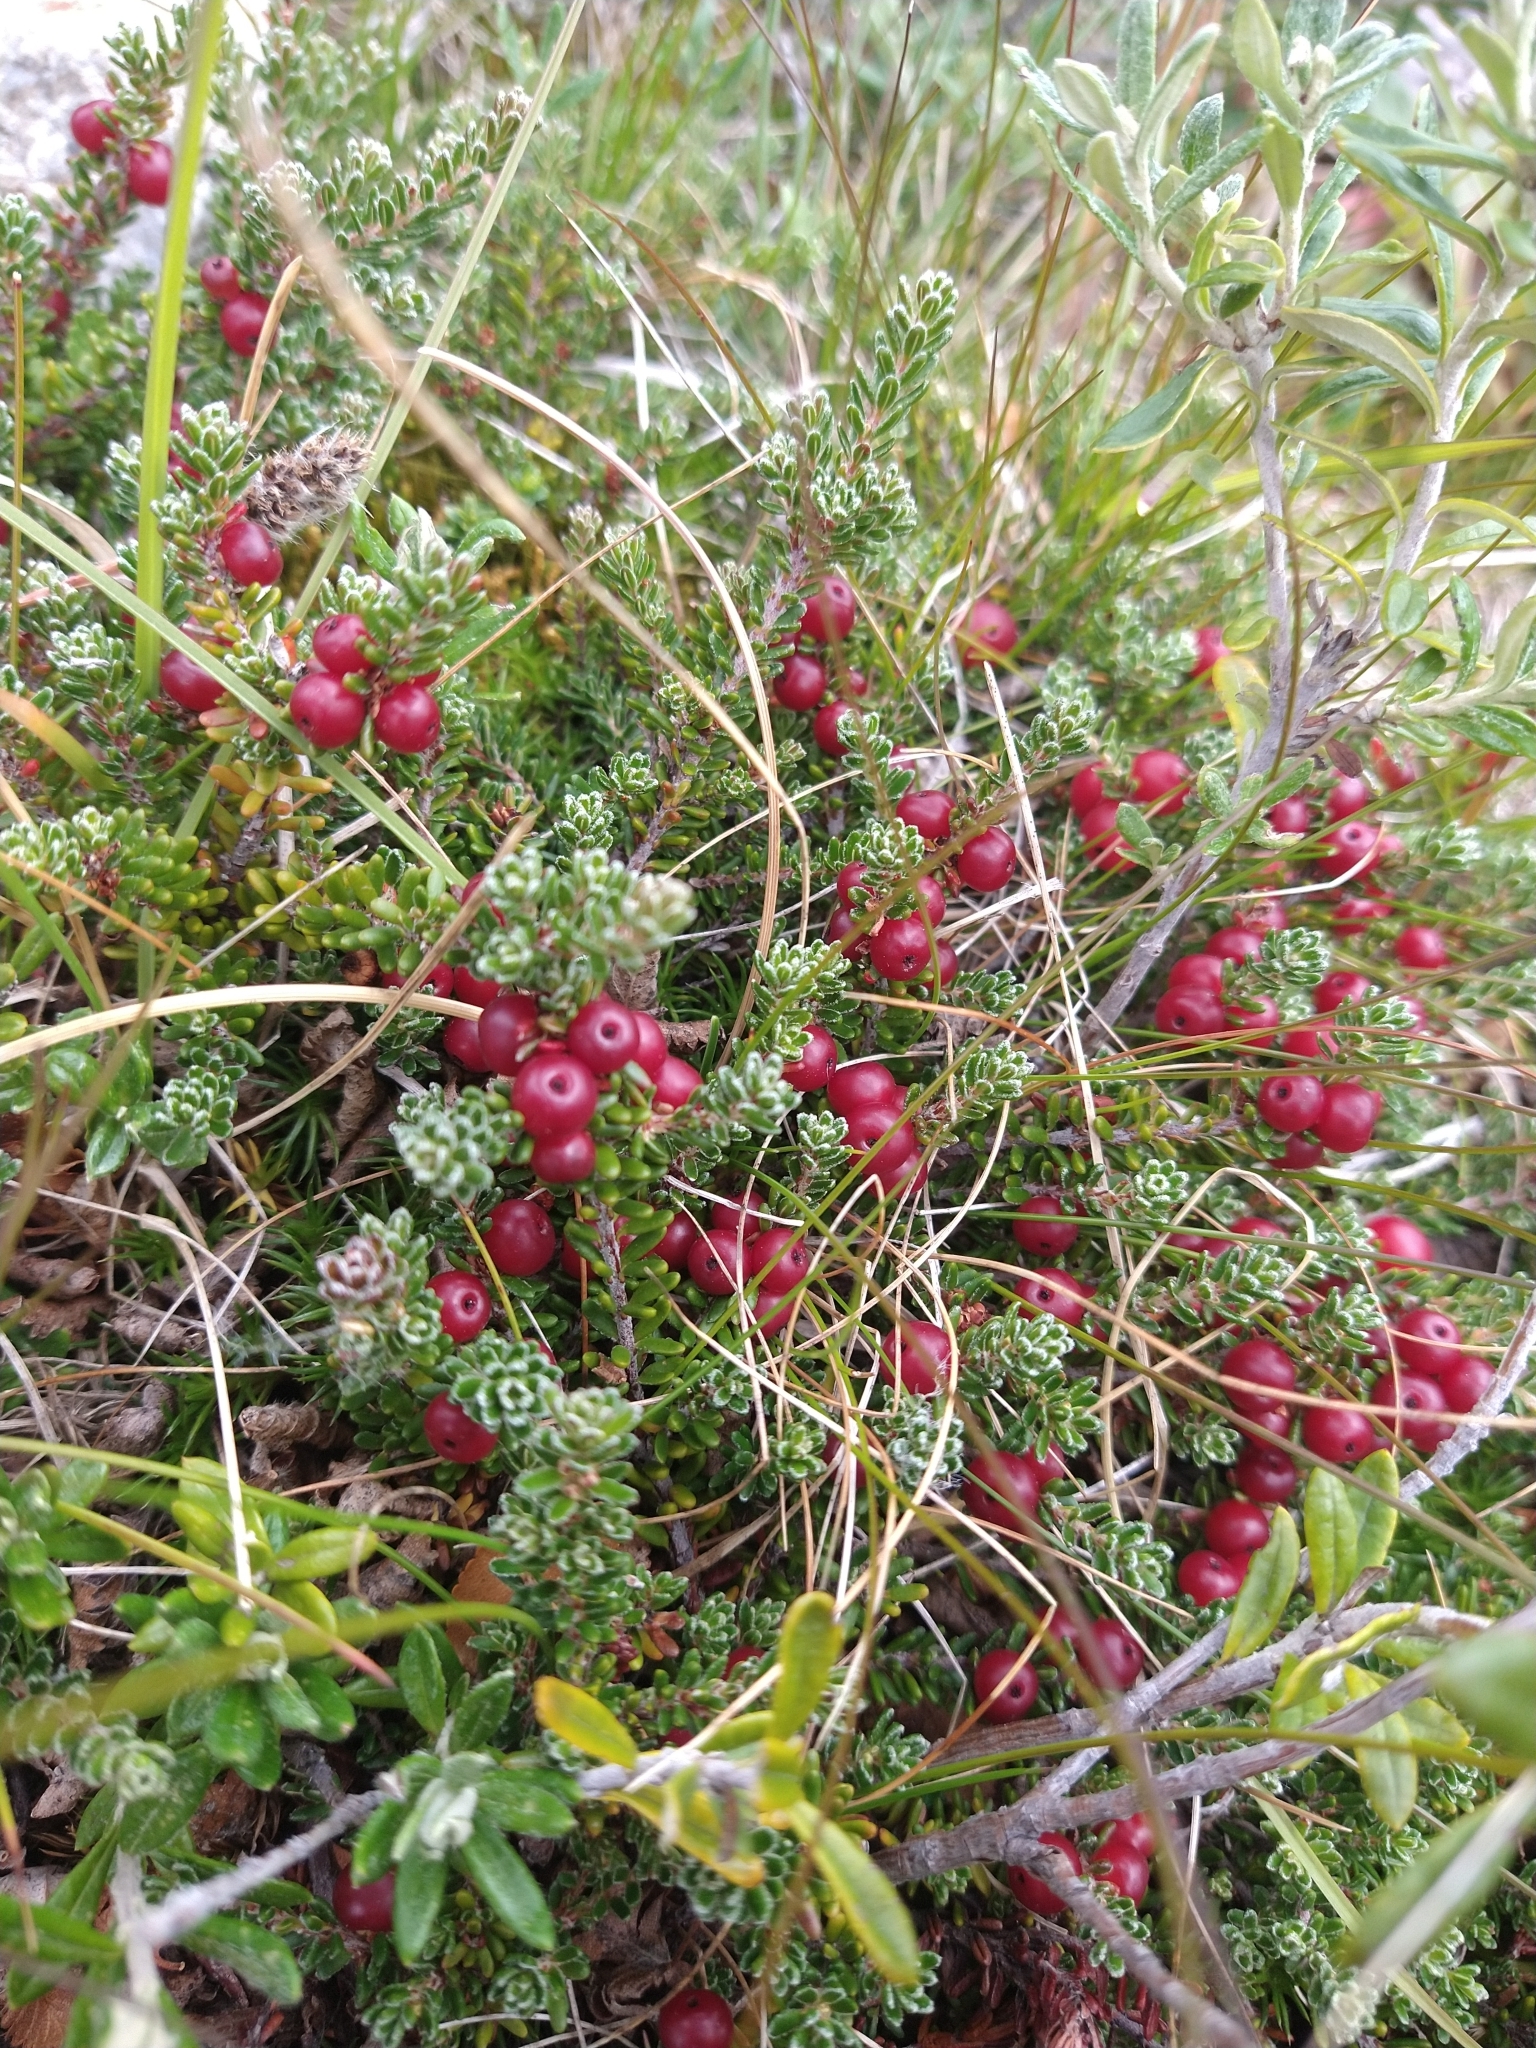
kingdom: Plantae
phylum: Tracheophyta
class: Magnoliopsida
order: Ericales
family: Ericaceae
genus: Empetrum
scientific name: Empetrum rubrum
